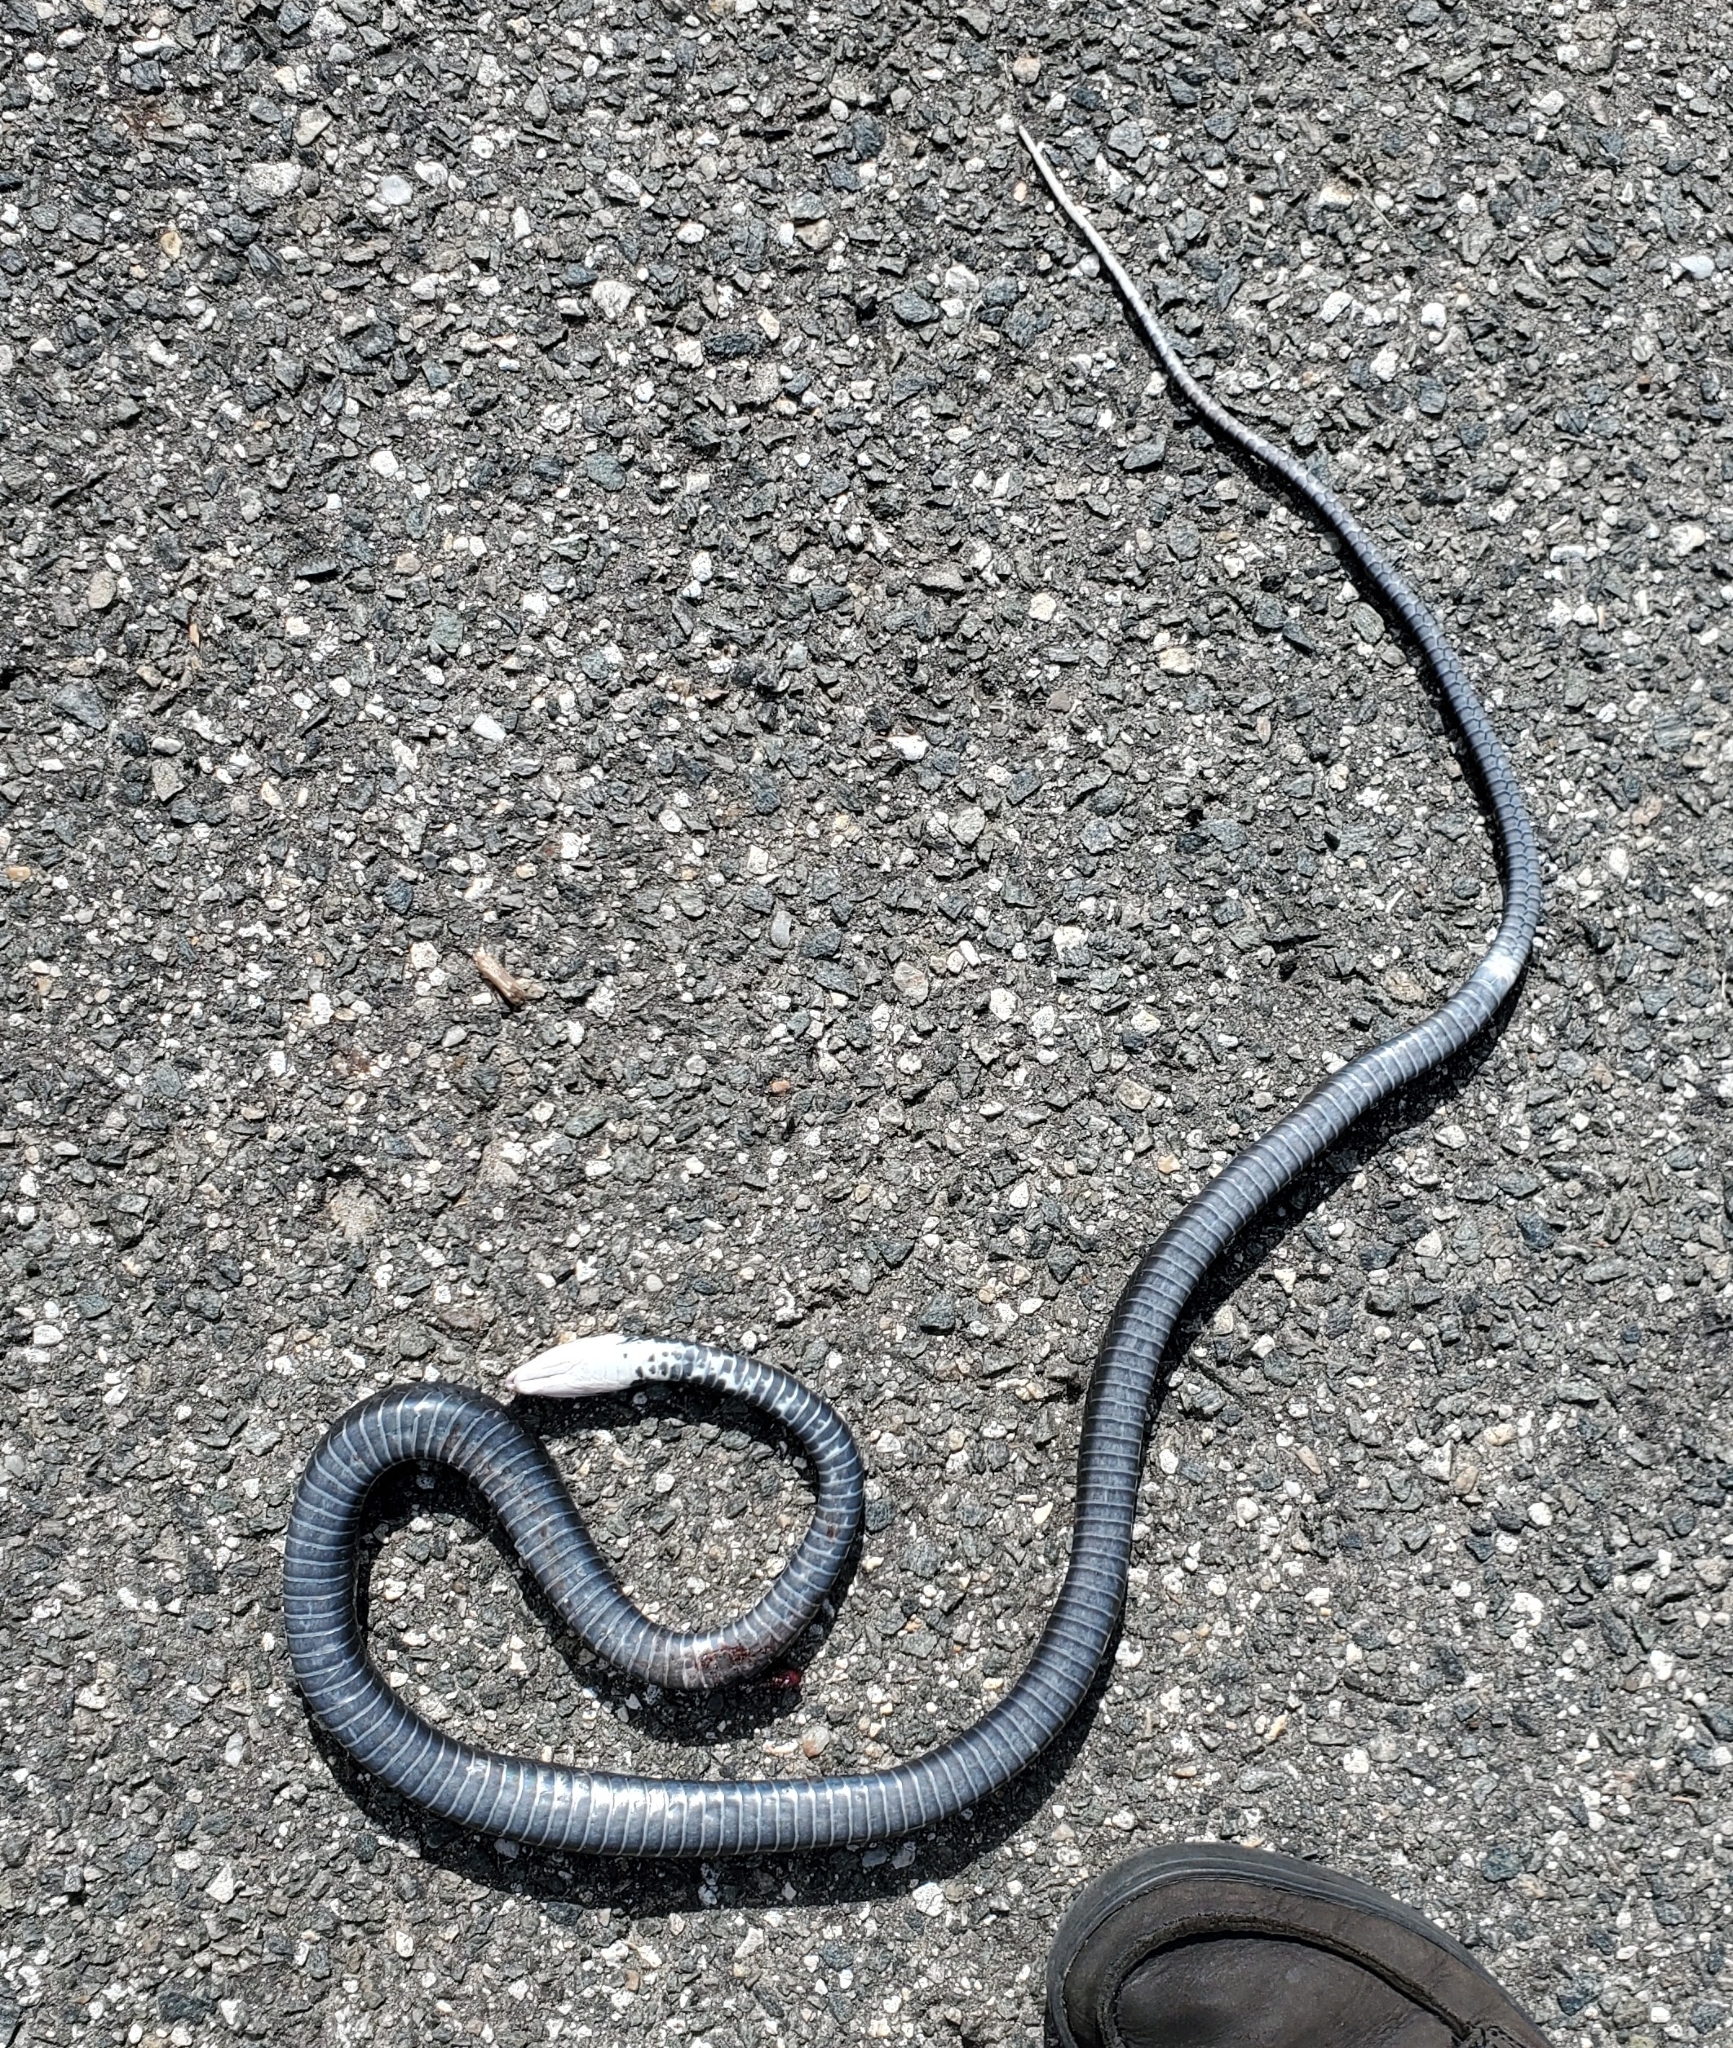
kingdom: Animalia
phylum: Chordata
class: Squamata
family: Colubridae
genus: Coluber
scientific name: Coluber constrictor
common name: Eastern racer
